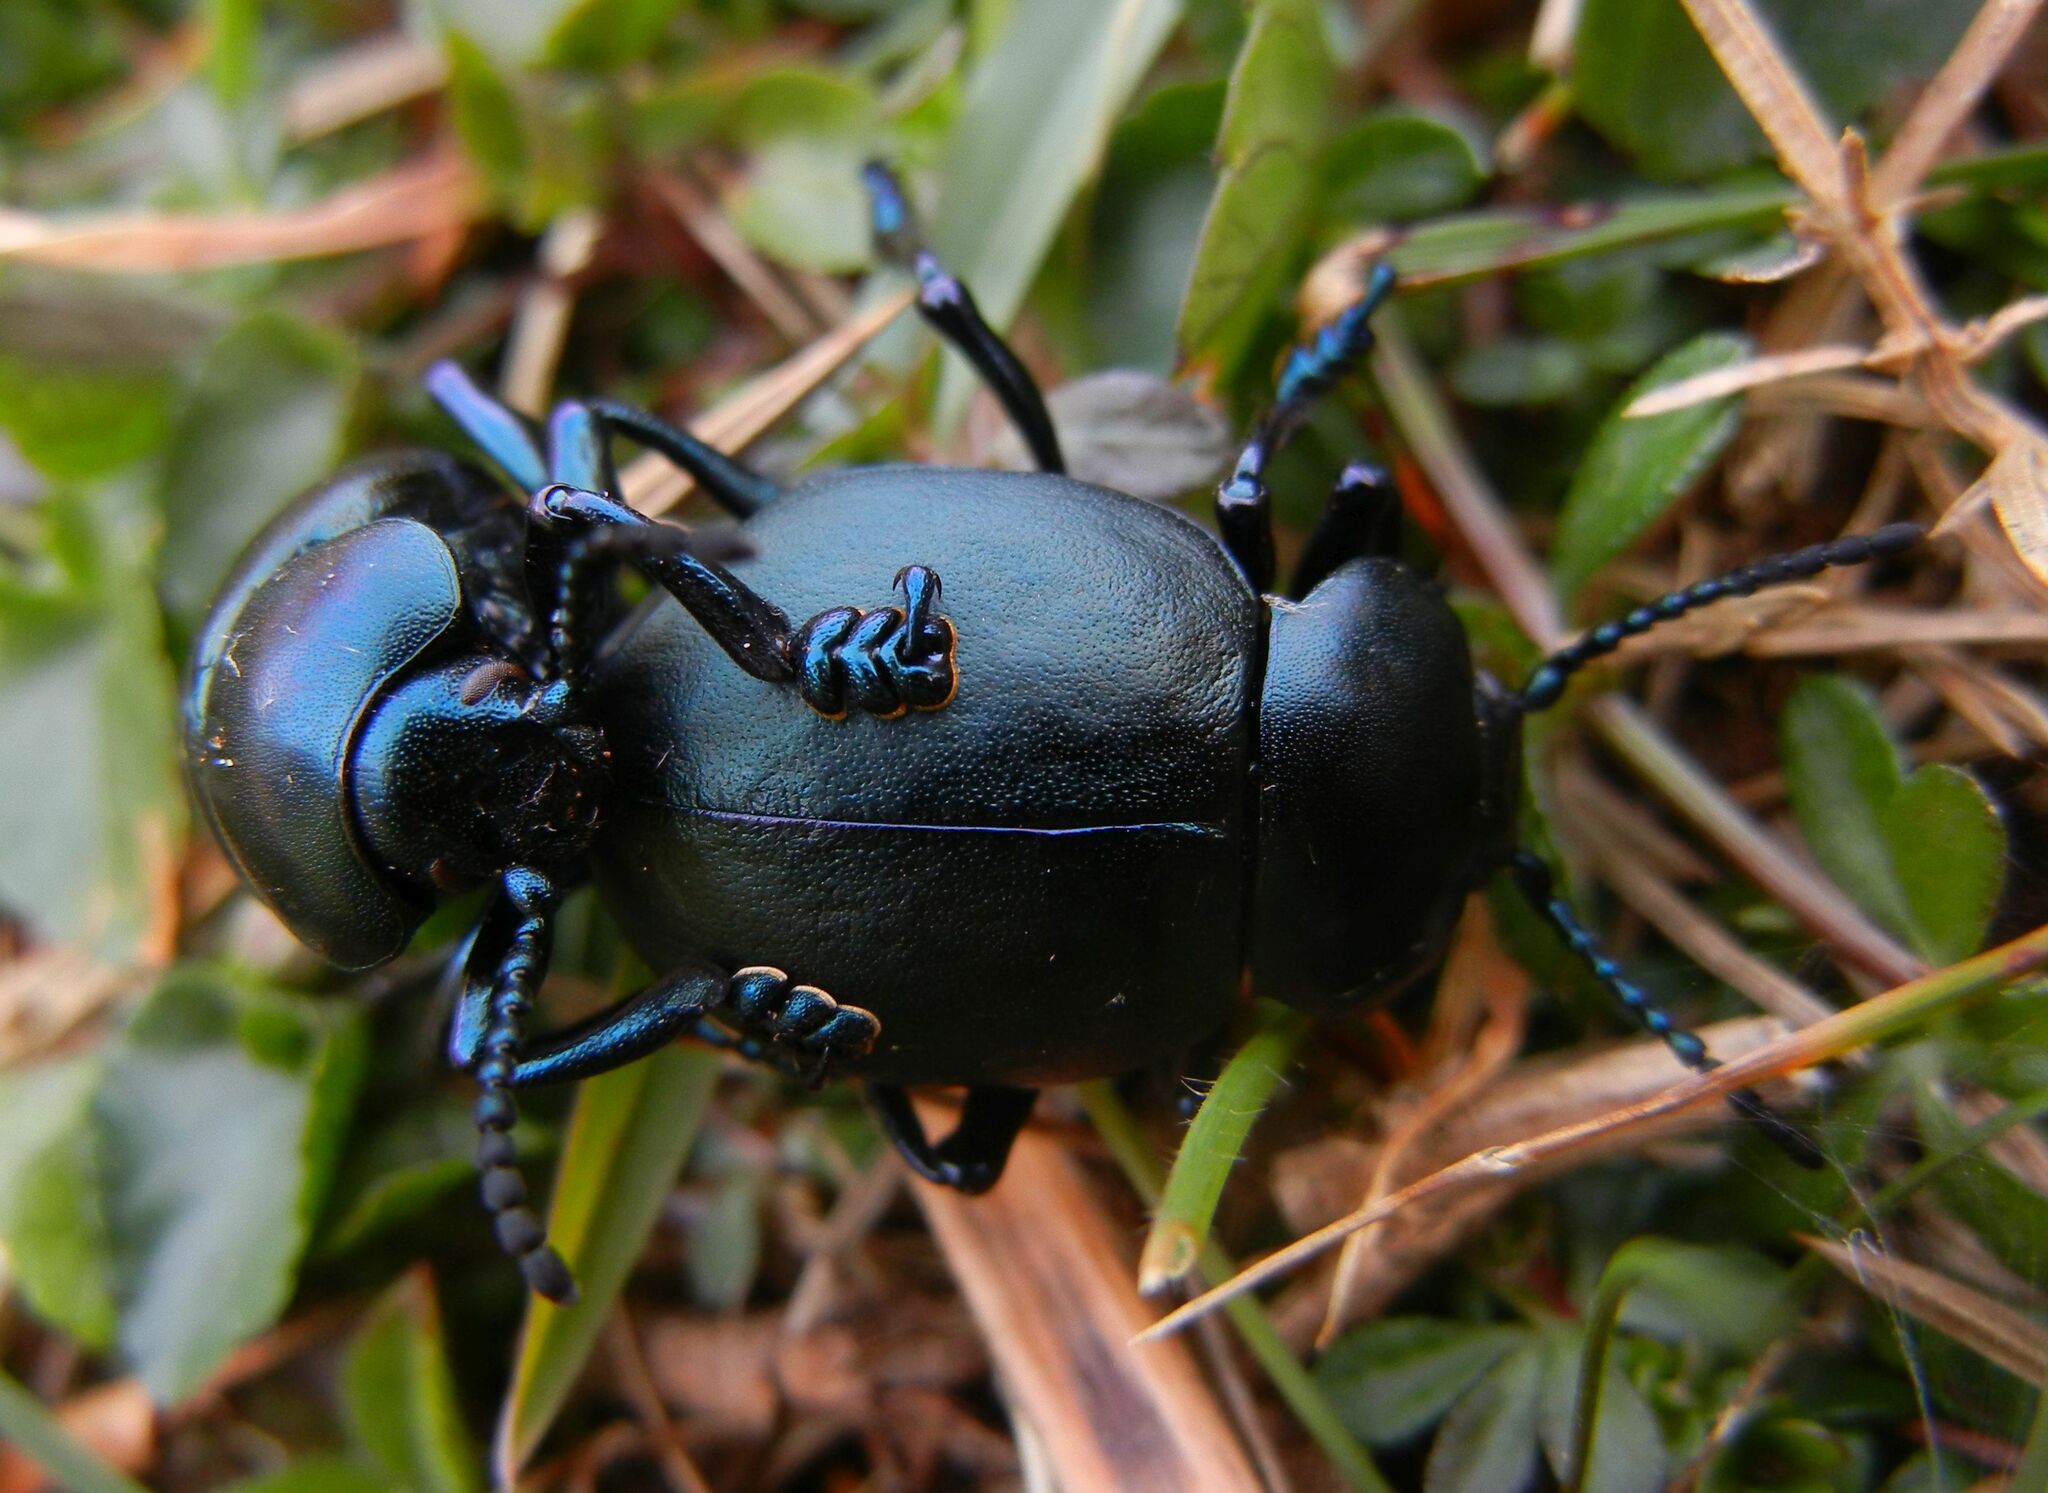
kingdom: Animalia
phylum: Arthropoda
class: Insecta
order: Coleoptera
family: Chrysomelidae
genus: Timarcha
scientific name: Timarcha tenebricosa
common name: Bloody-nosed beetle
